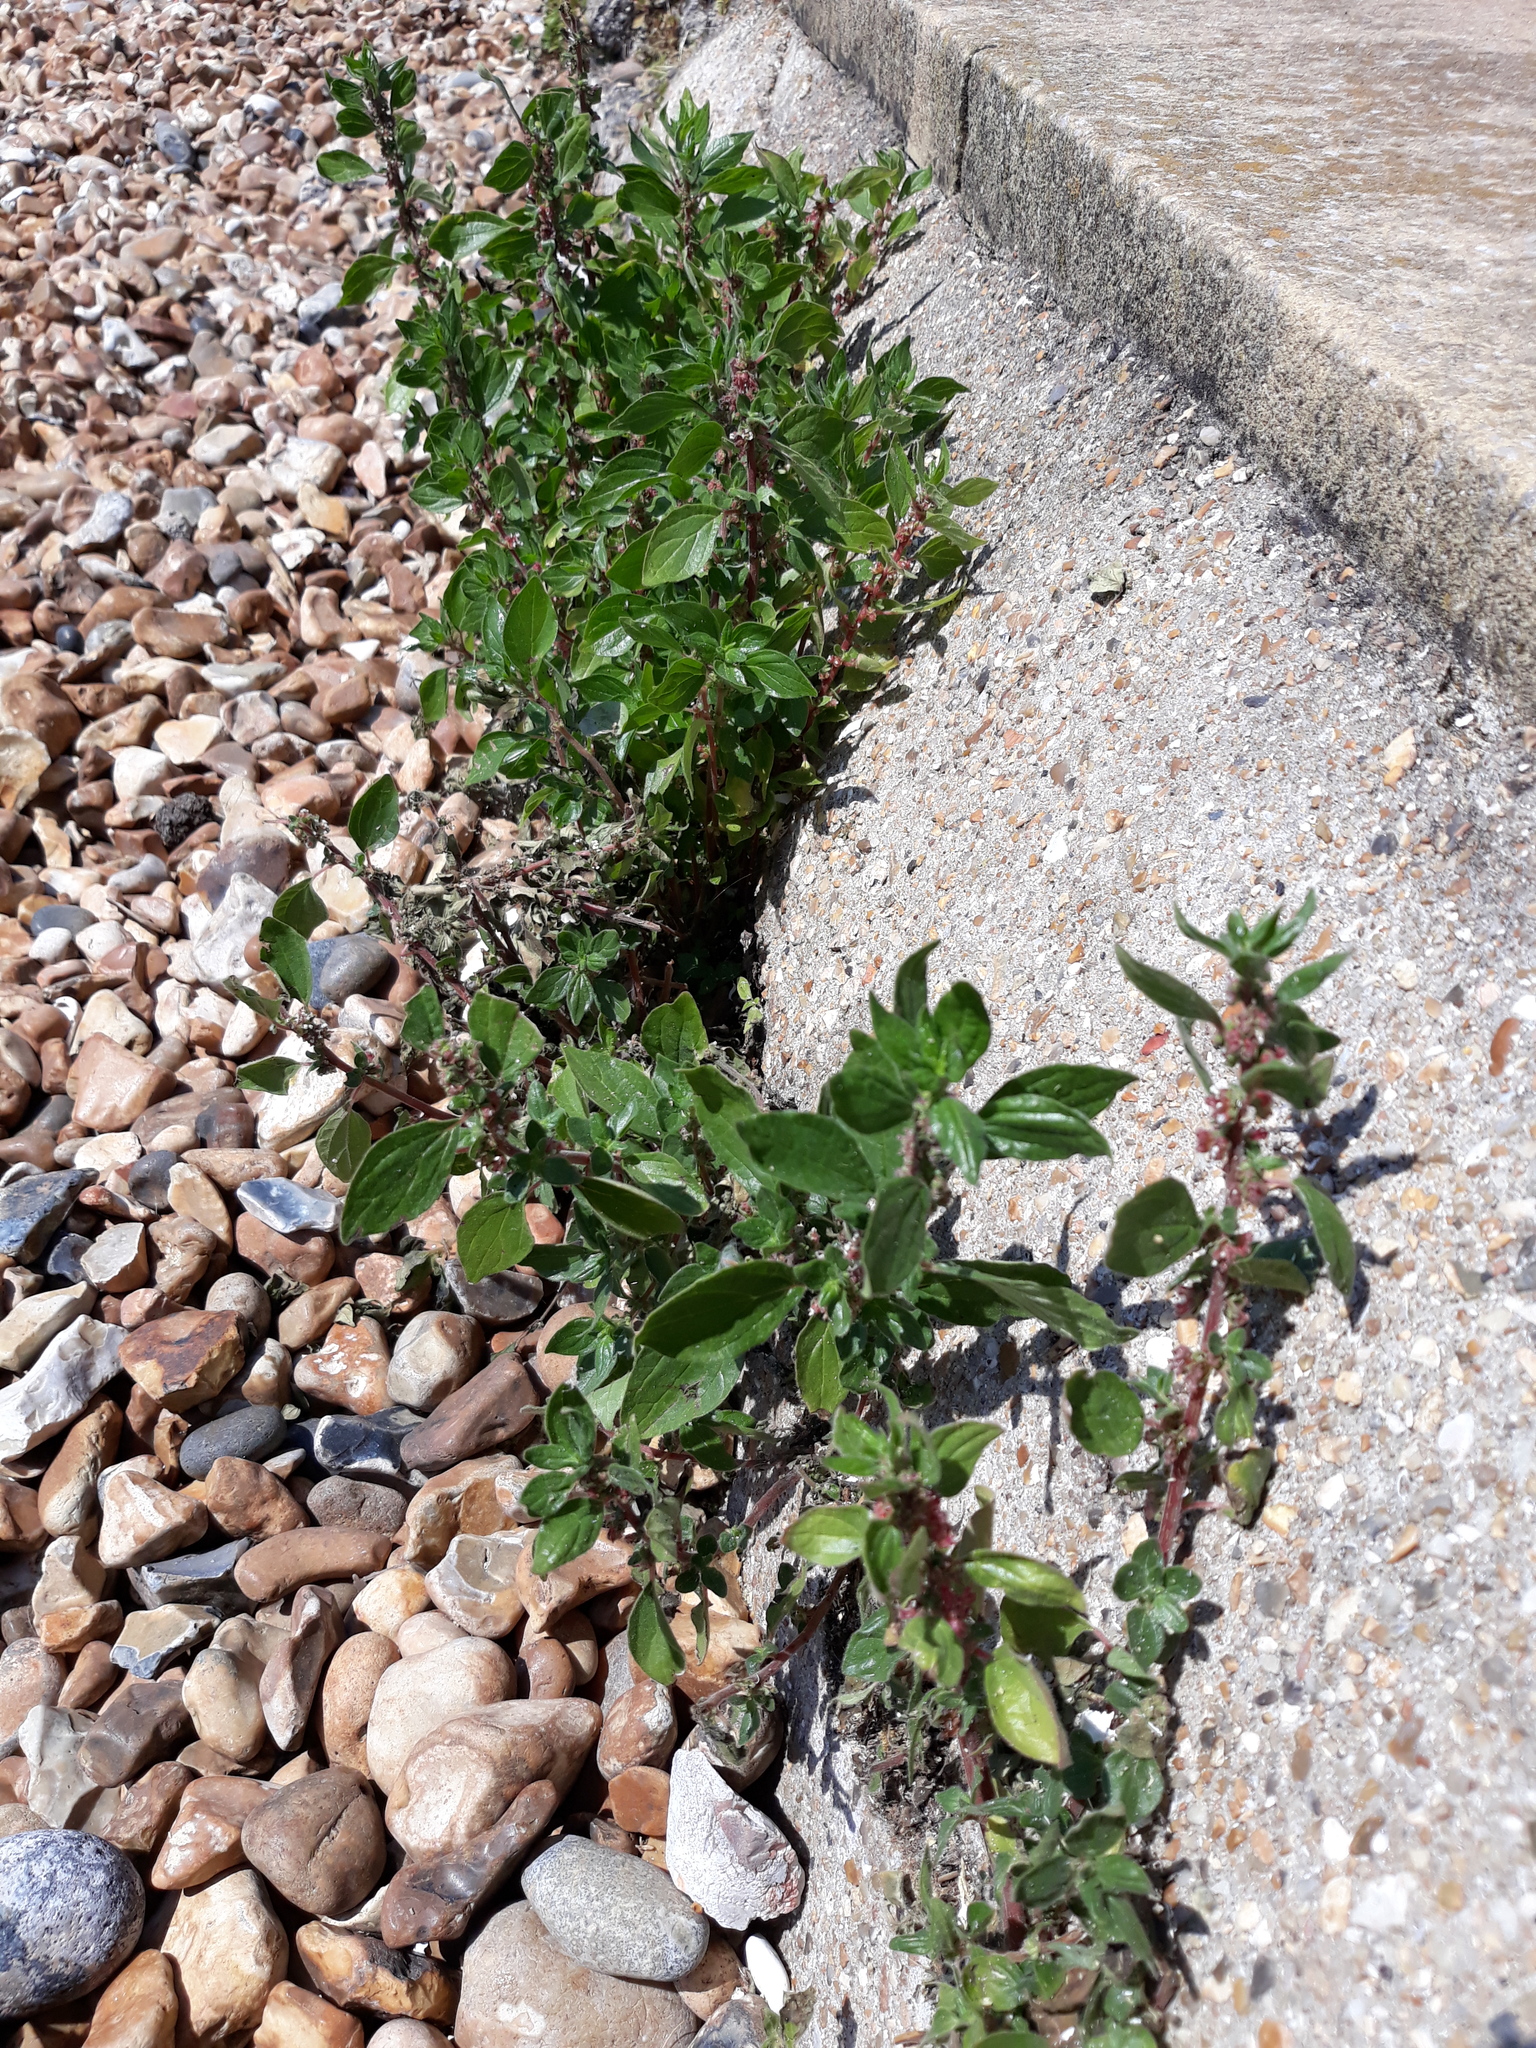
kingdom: Plantae
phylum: Tracheophyta
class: Magnoliopsida
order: Rosales
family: Urticaceae
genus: Parietaria
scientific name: Parietaria judaica
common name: Pellitory-of-the-wall
